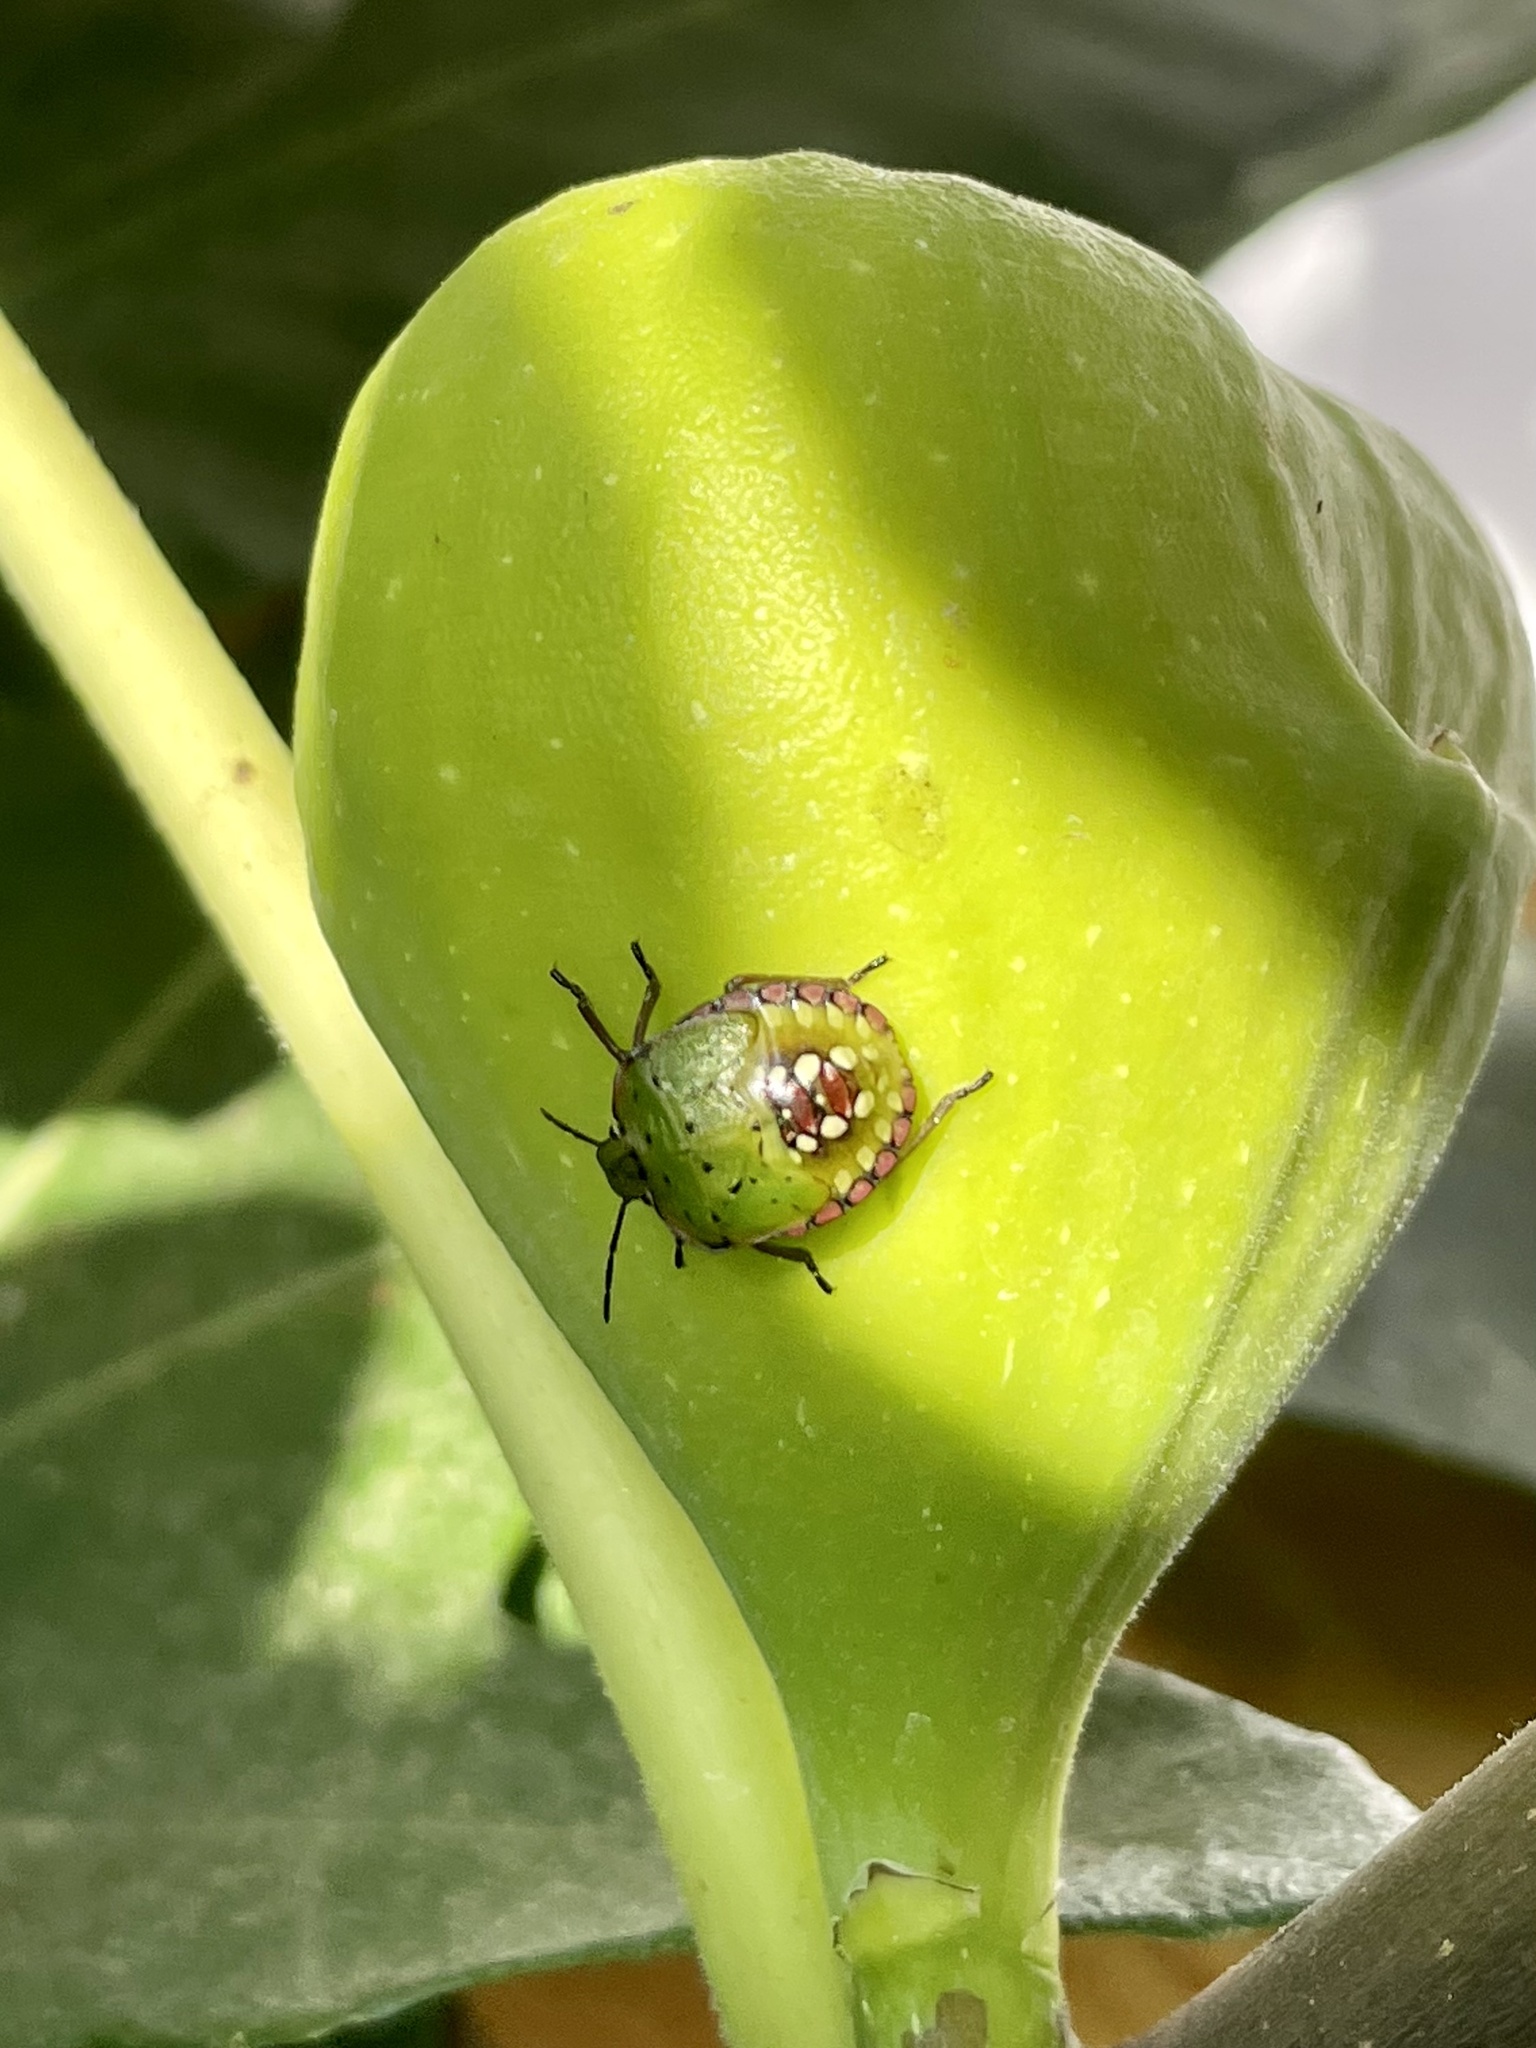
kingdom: Animalia
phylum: Arthropoda
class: Insecta
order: Hemiptera
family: Pentatomidae
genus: Nezara
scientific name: Nezara viridula
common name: Southern green stink bug
